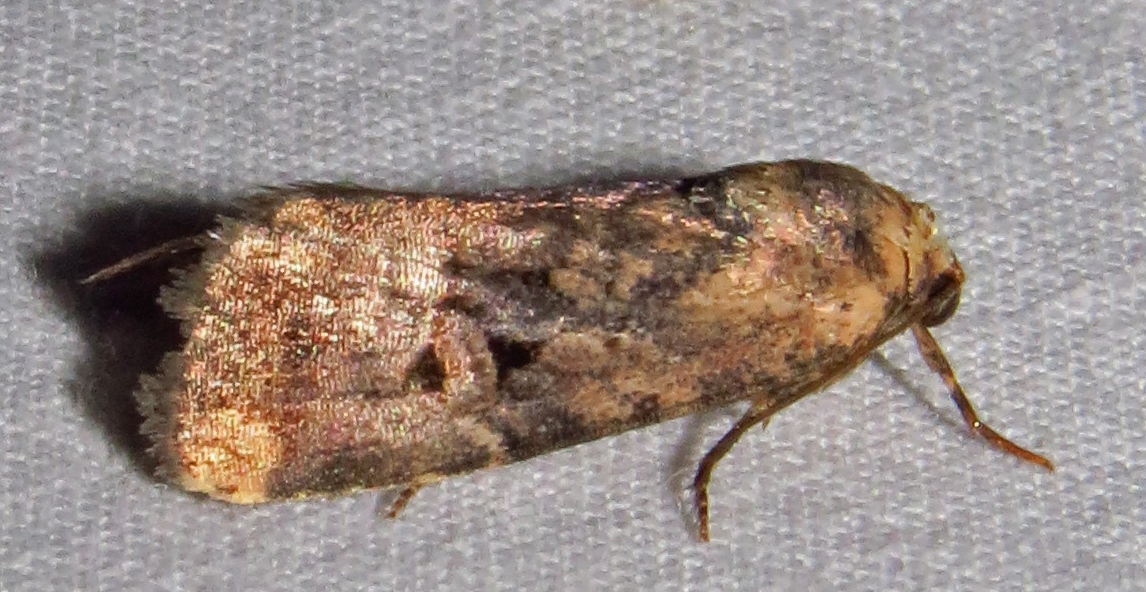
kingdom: Animalia
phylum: Arthropoda
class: Insecta
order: Lepidoptera
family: Noctuidae
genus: Elaphria
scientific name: Elaphria chalcedonia
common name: Chalcedony midget
